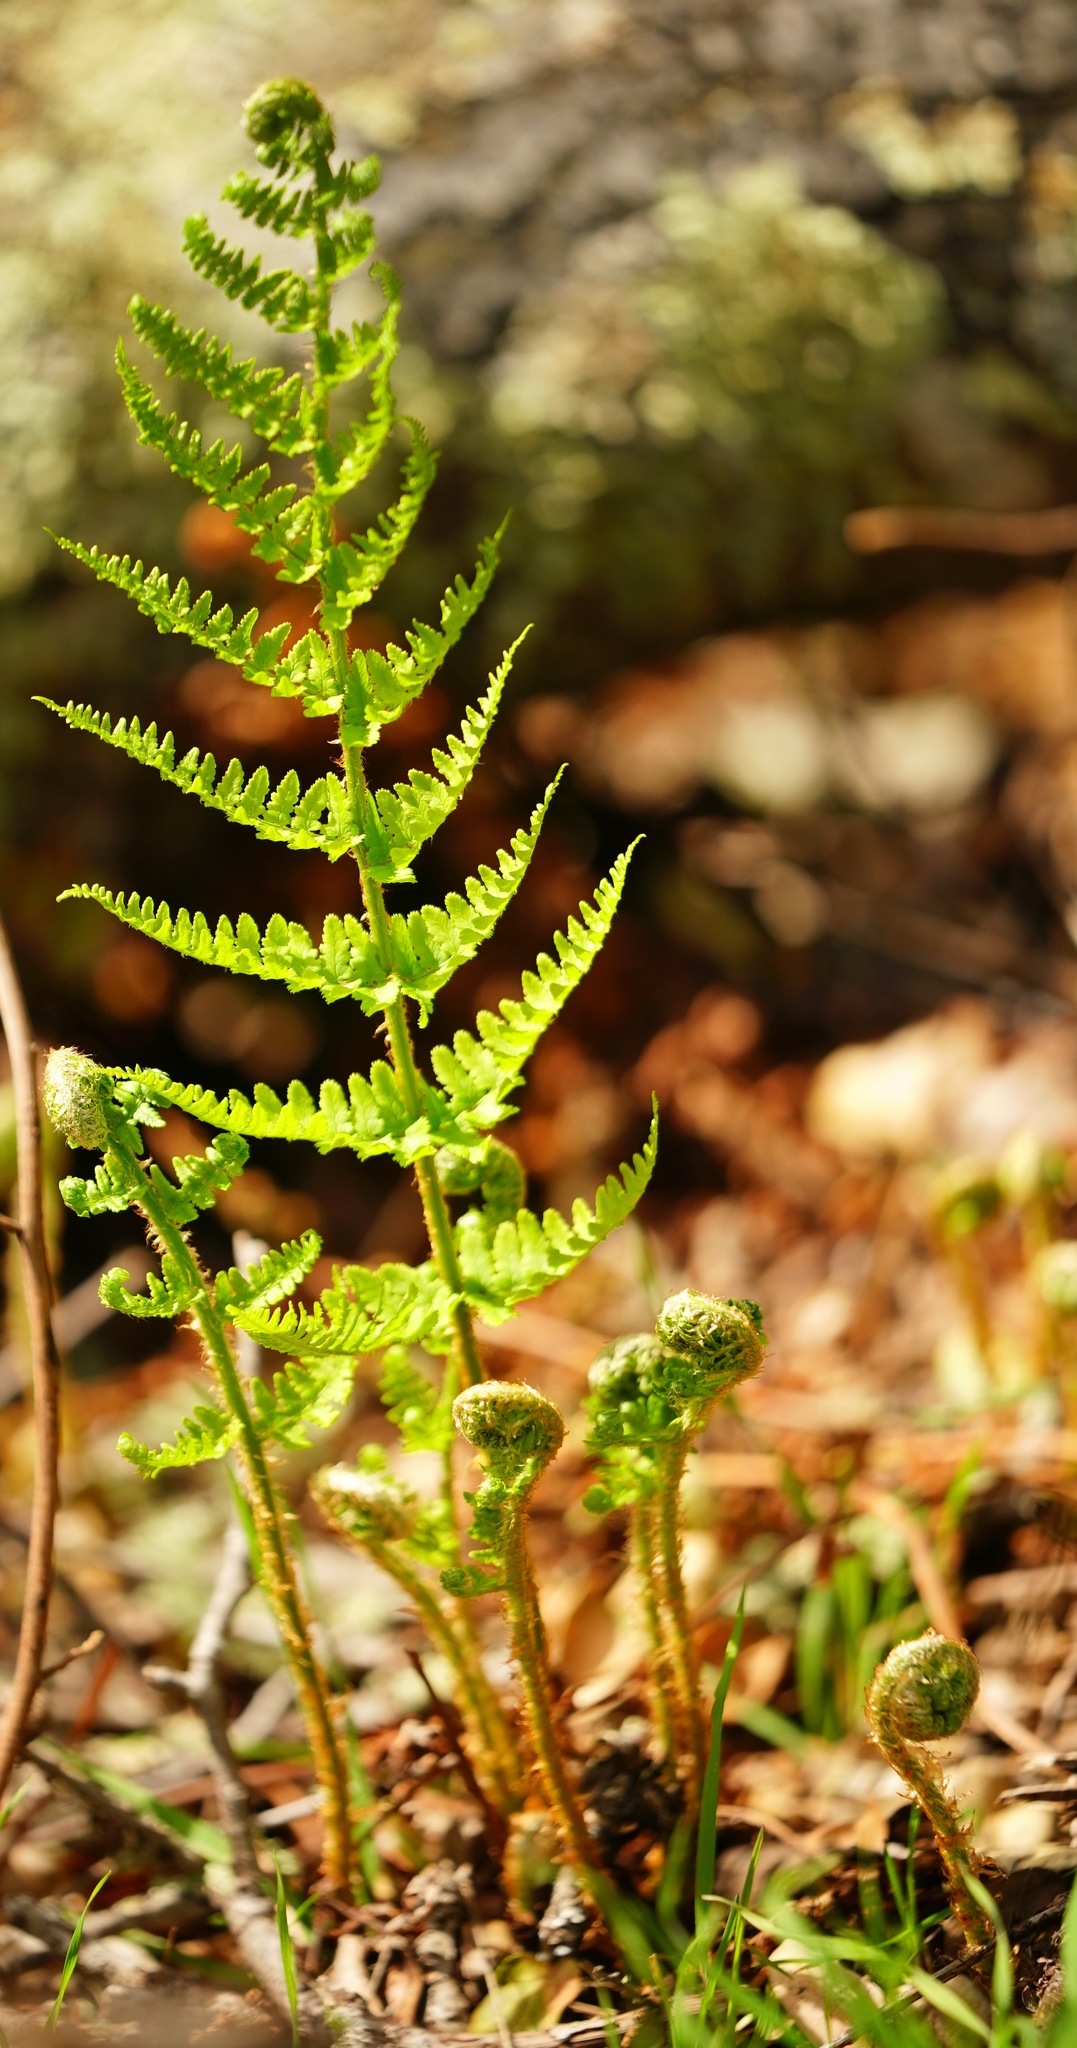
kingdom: Plantae
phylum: Tracheophyta
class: Polypodiopsida
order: Polypodiales
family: Dryopteridaceae
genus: Dryopteris
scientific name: Dryopteris arguta
